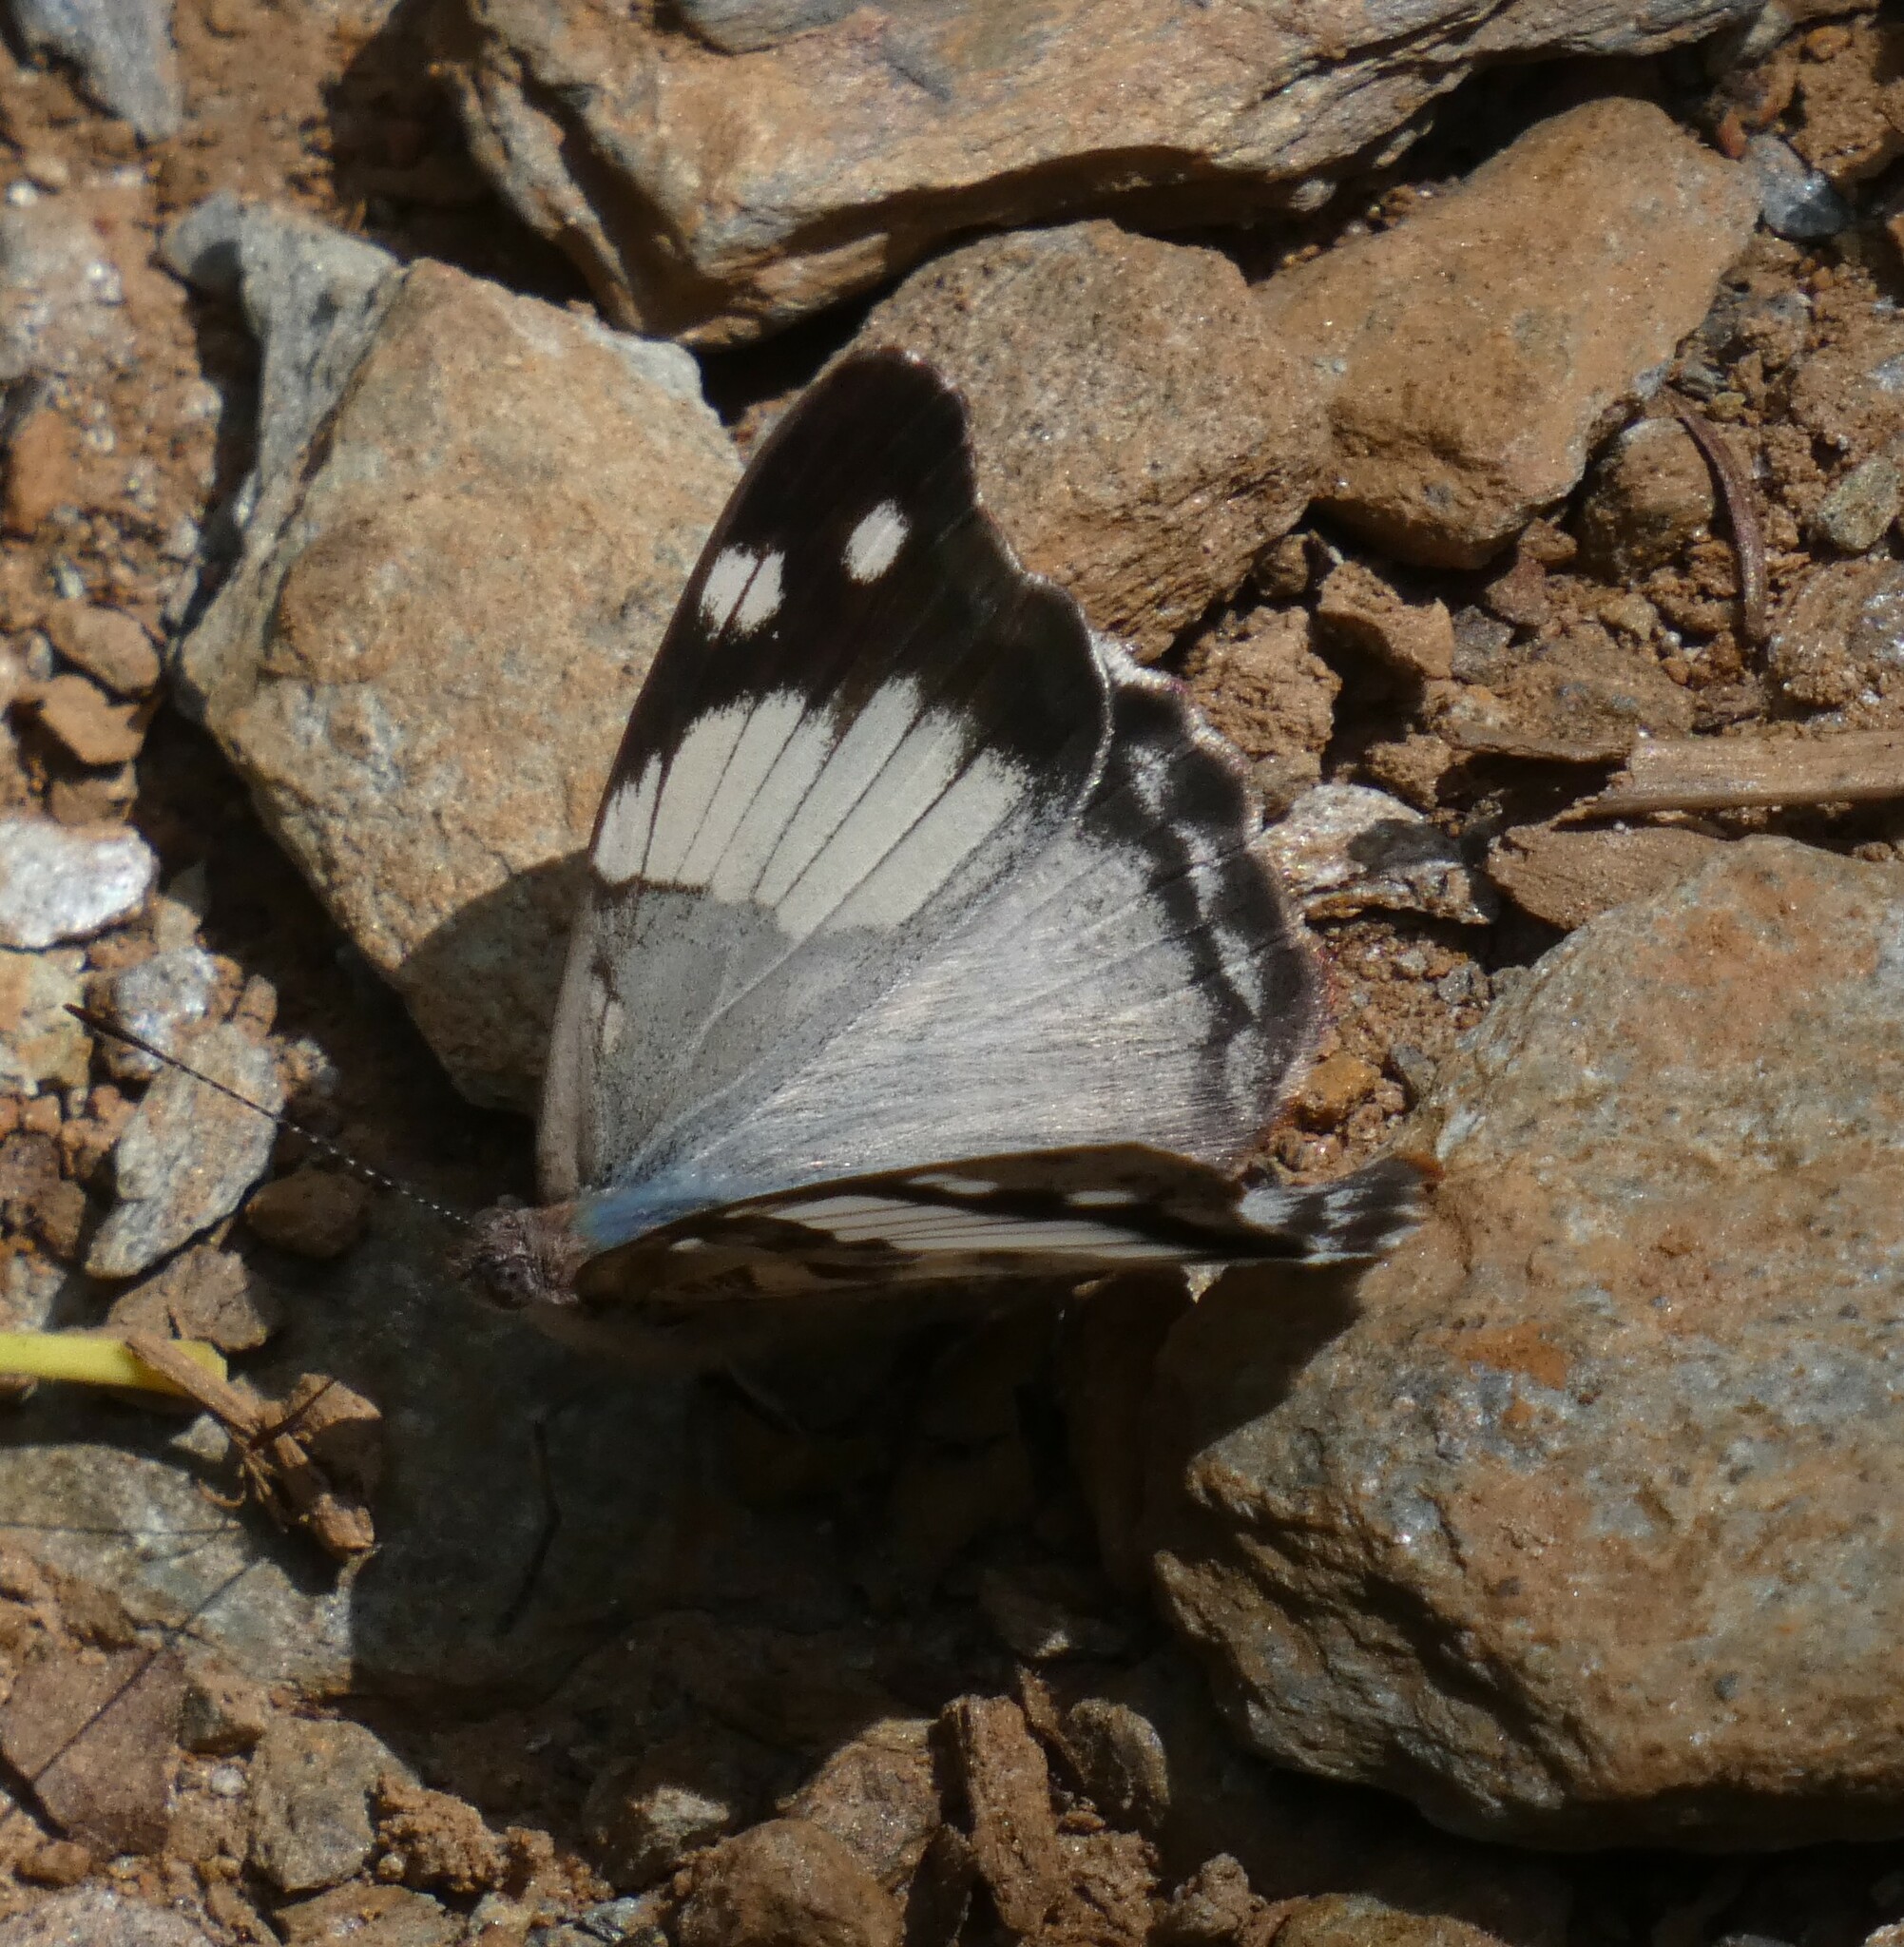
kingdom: Animalia
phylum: Arthropoda
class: Insecta
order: Lepidoptera
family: Nymphalidae
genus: Eunica
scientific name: Eunica eburnea
